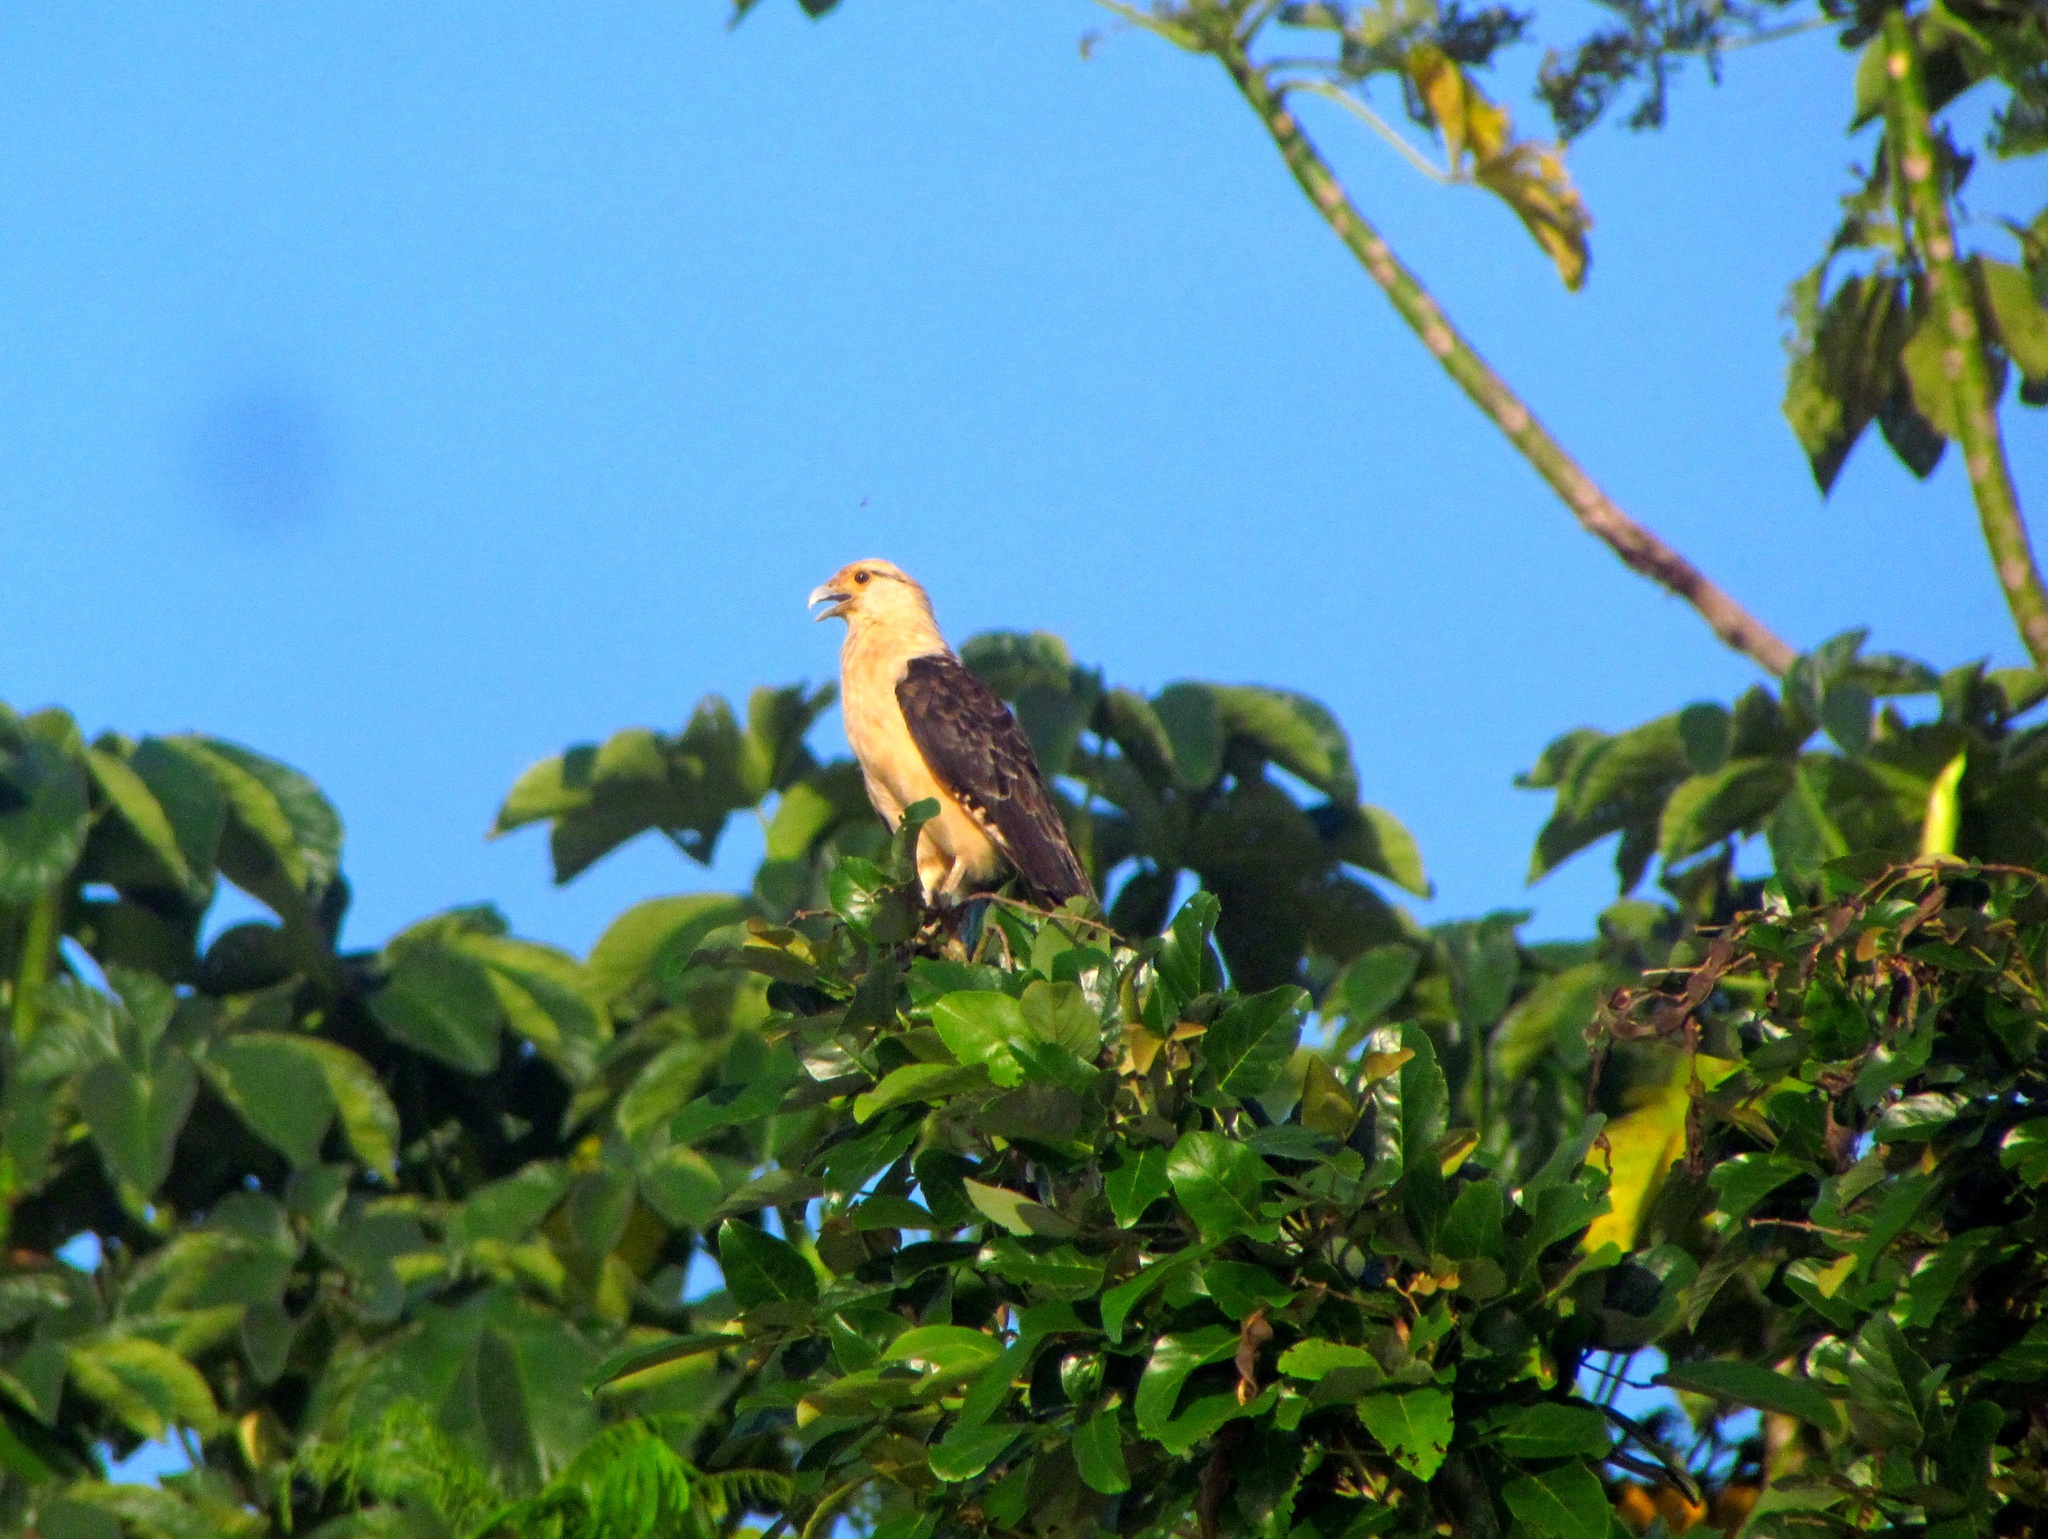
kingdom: Animalia
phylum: Chordata
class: Aves
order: Falconiformes
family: Falconidae
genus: Daptrius
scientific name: Daptrius
